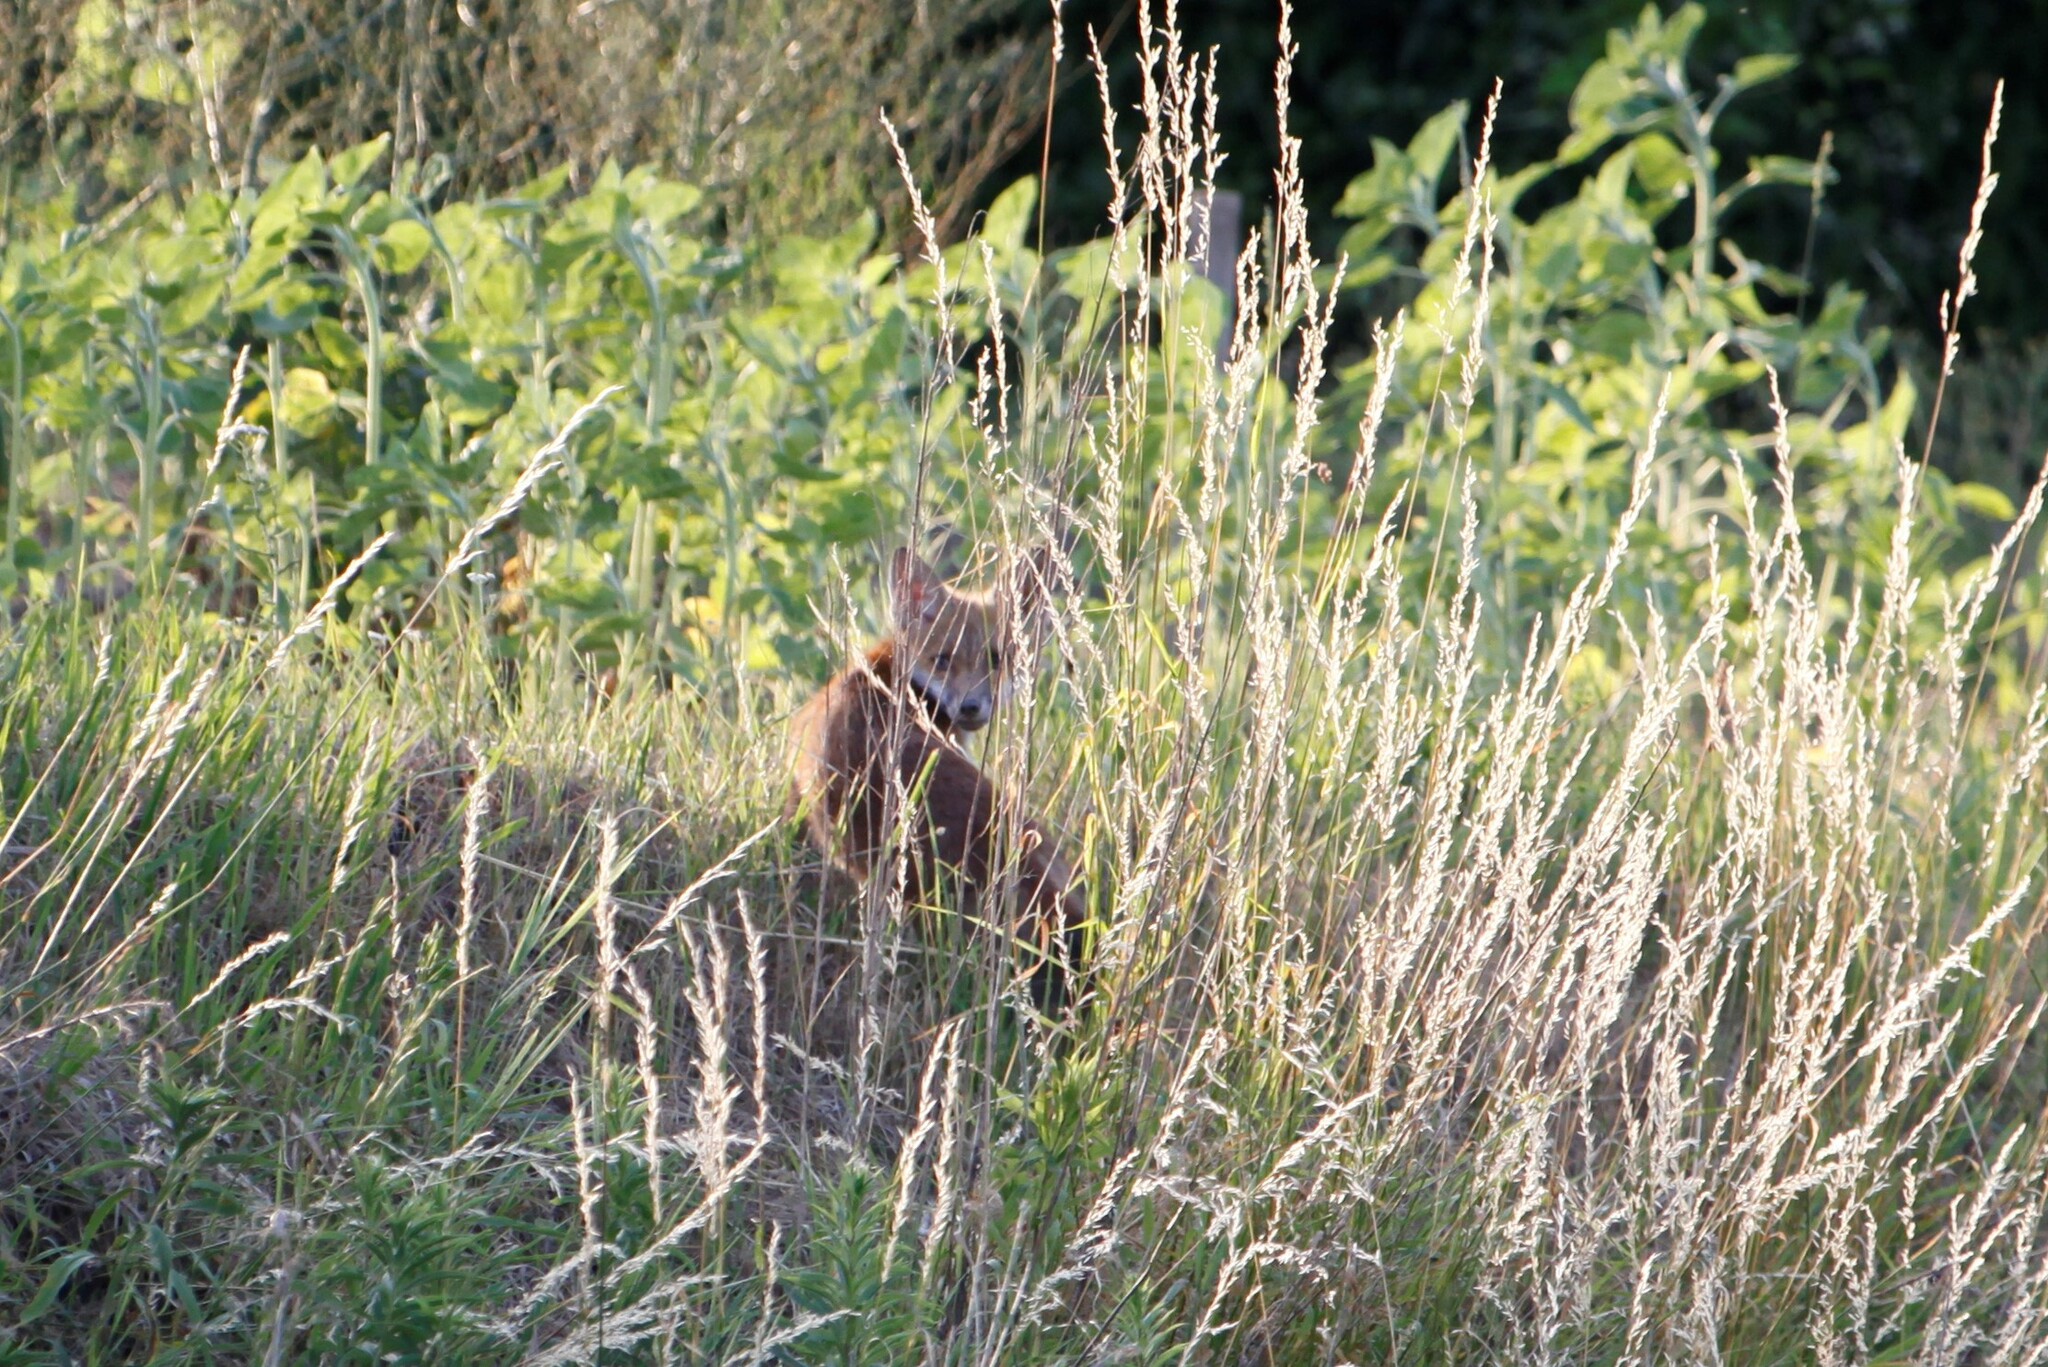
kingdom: Animalia
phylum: Chordata
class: Mammalia
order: Carnivora
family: Canidae
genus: Vulpes
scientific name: Vulpes vulpes
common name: Red fox
